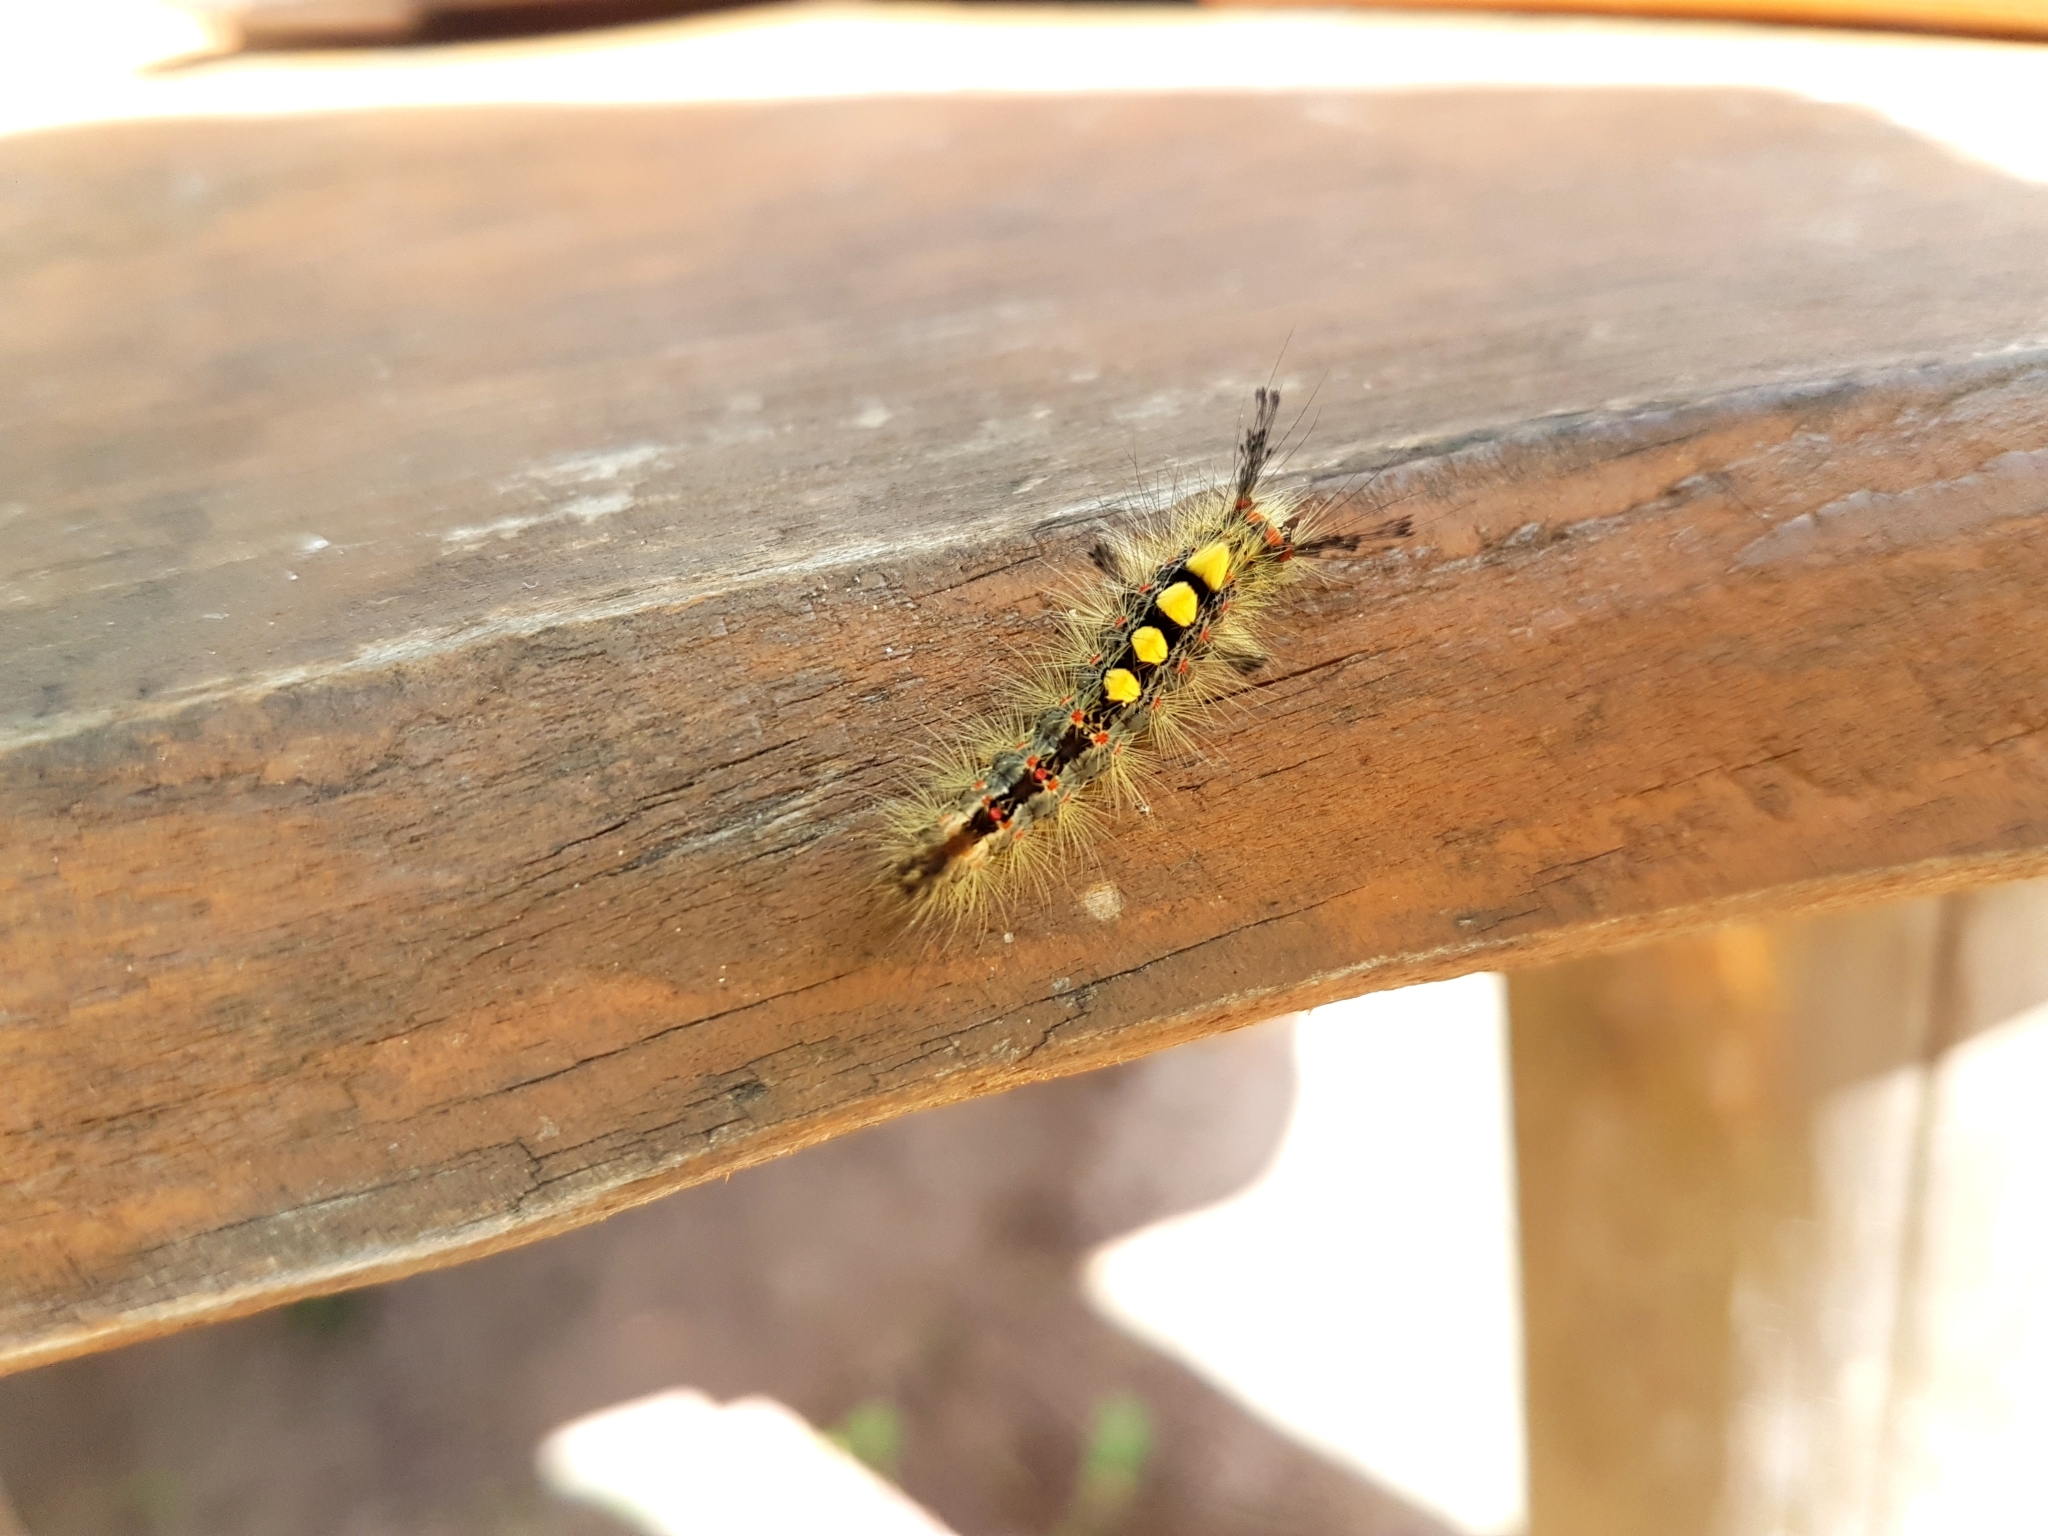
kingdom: Animalia
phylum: Arthropoda
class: Insecta
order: Lepidoptera
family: Erebidae
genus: Orgyia
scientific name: Orgyia antiqua
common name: Vapourer
